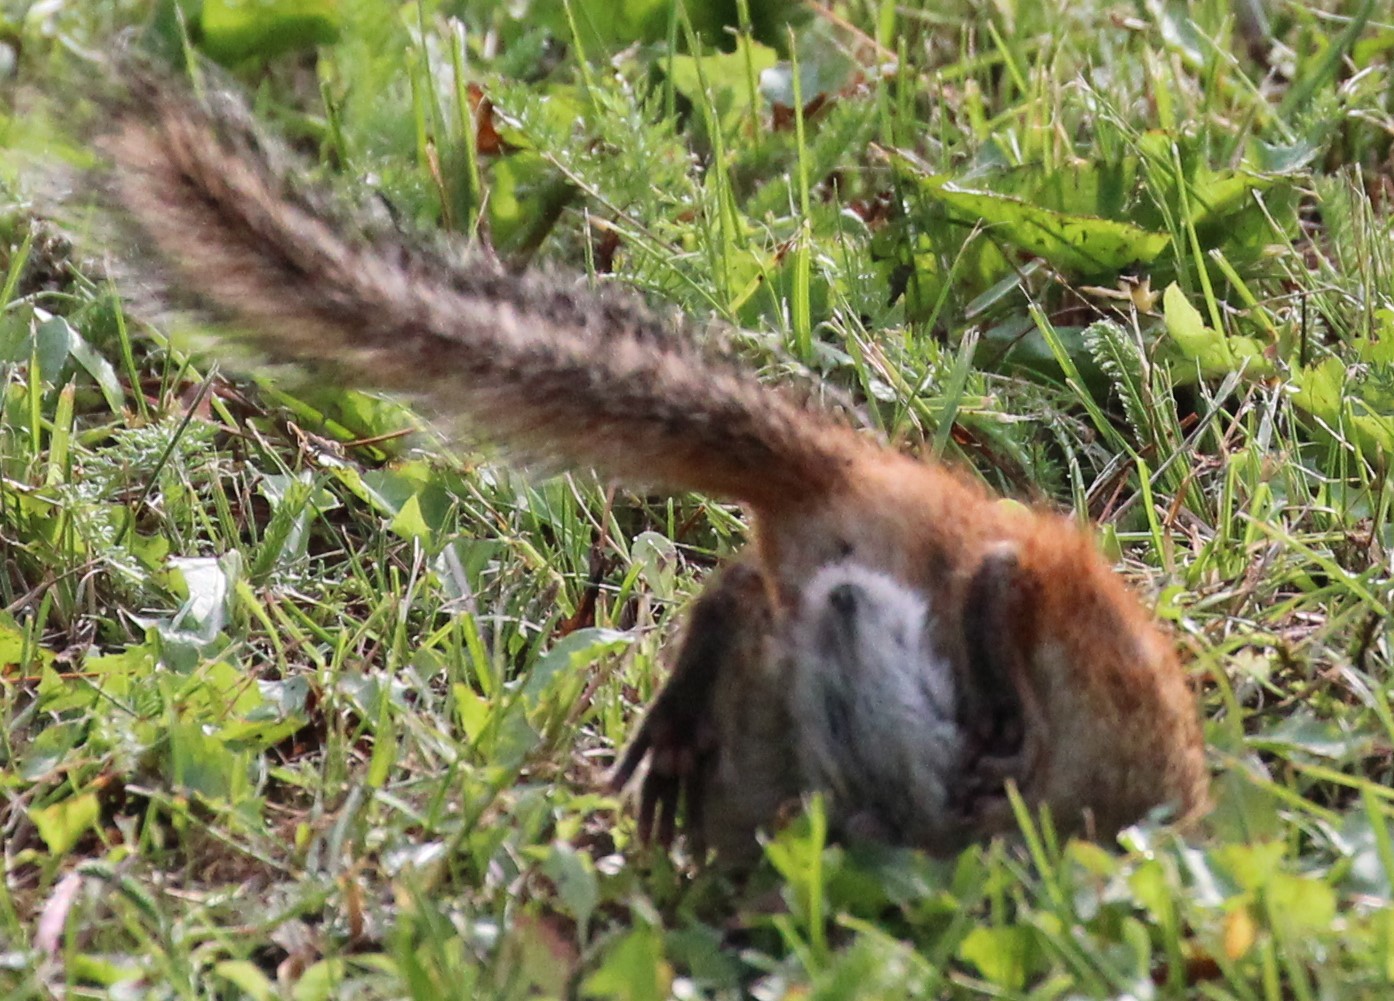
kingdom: Animalia
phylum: Arthropoda
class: Insecta
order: Diptera
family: Oestridae
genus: Cuterebra
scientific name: Cuterebra emasculator
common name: Squirrel bot fly
